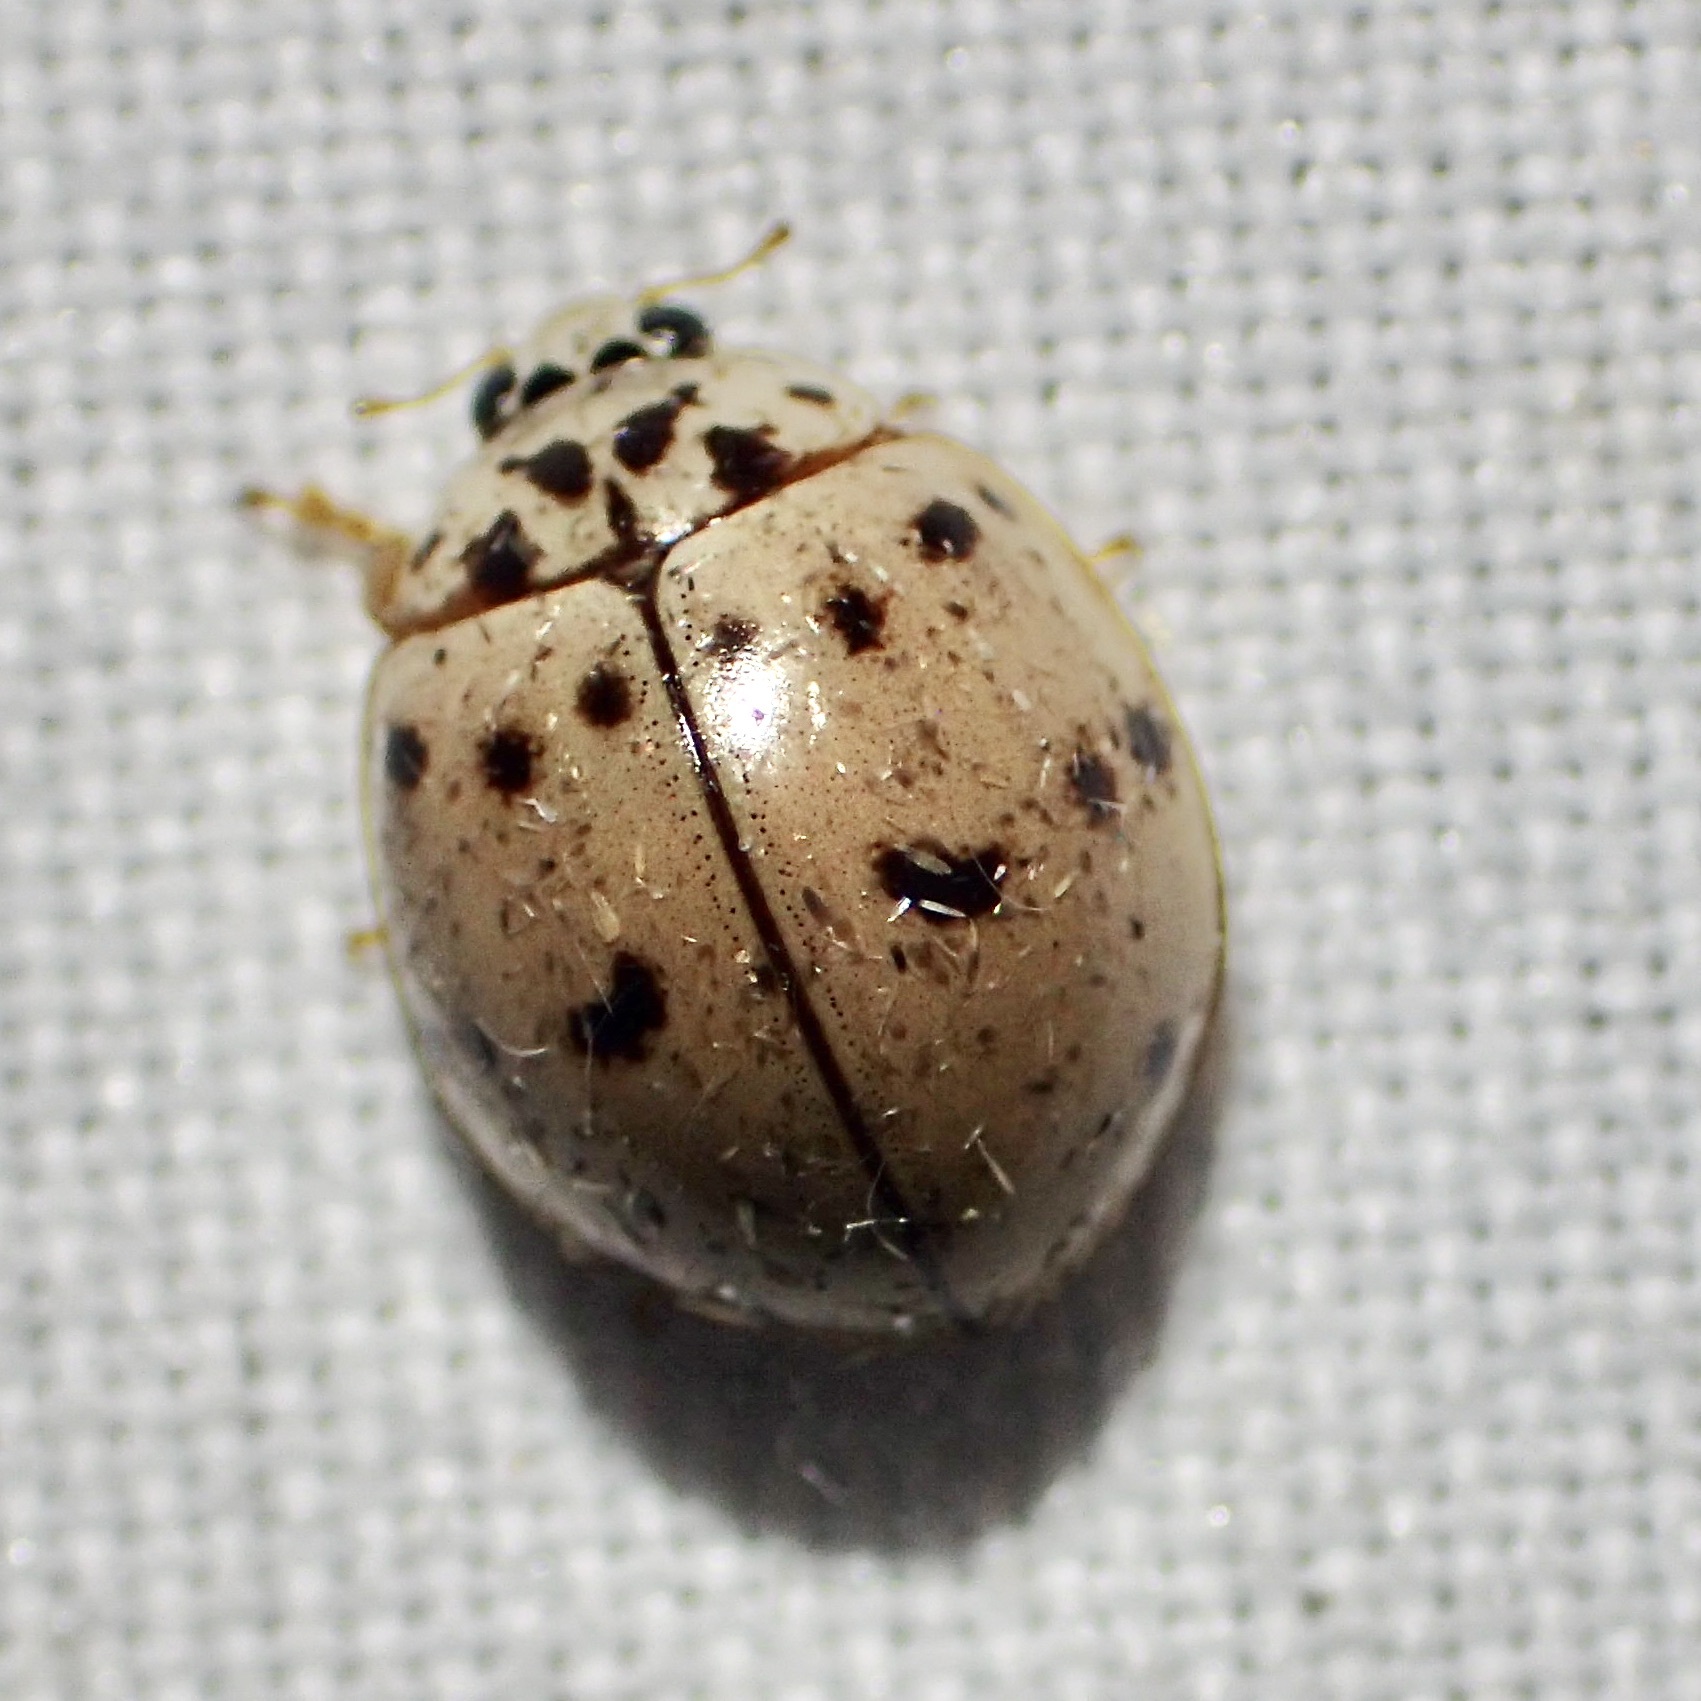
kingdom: Animalia
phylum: Arthropoda
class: Insecta
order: Coleoptera
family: Coccinellidae
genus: Olla
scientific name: Olla v-nigrum
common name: Ashy gray lady beetle
